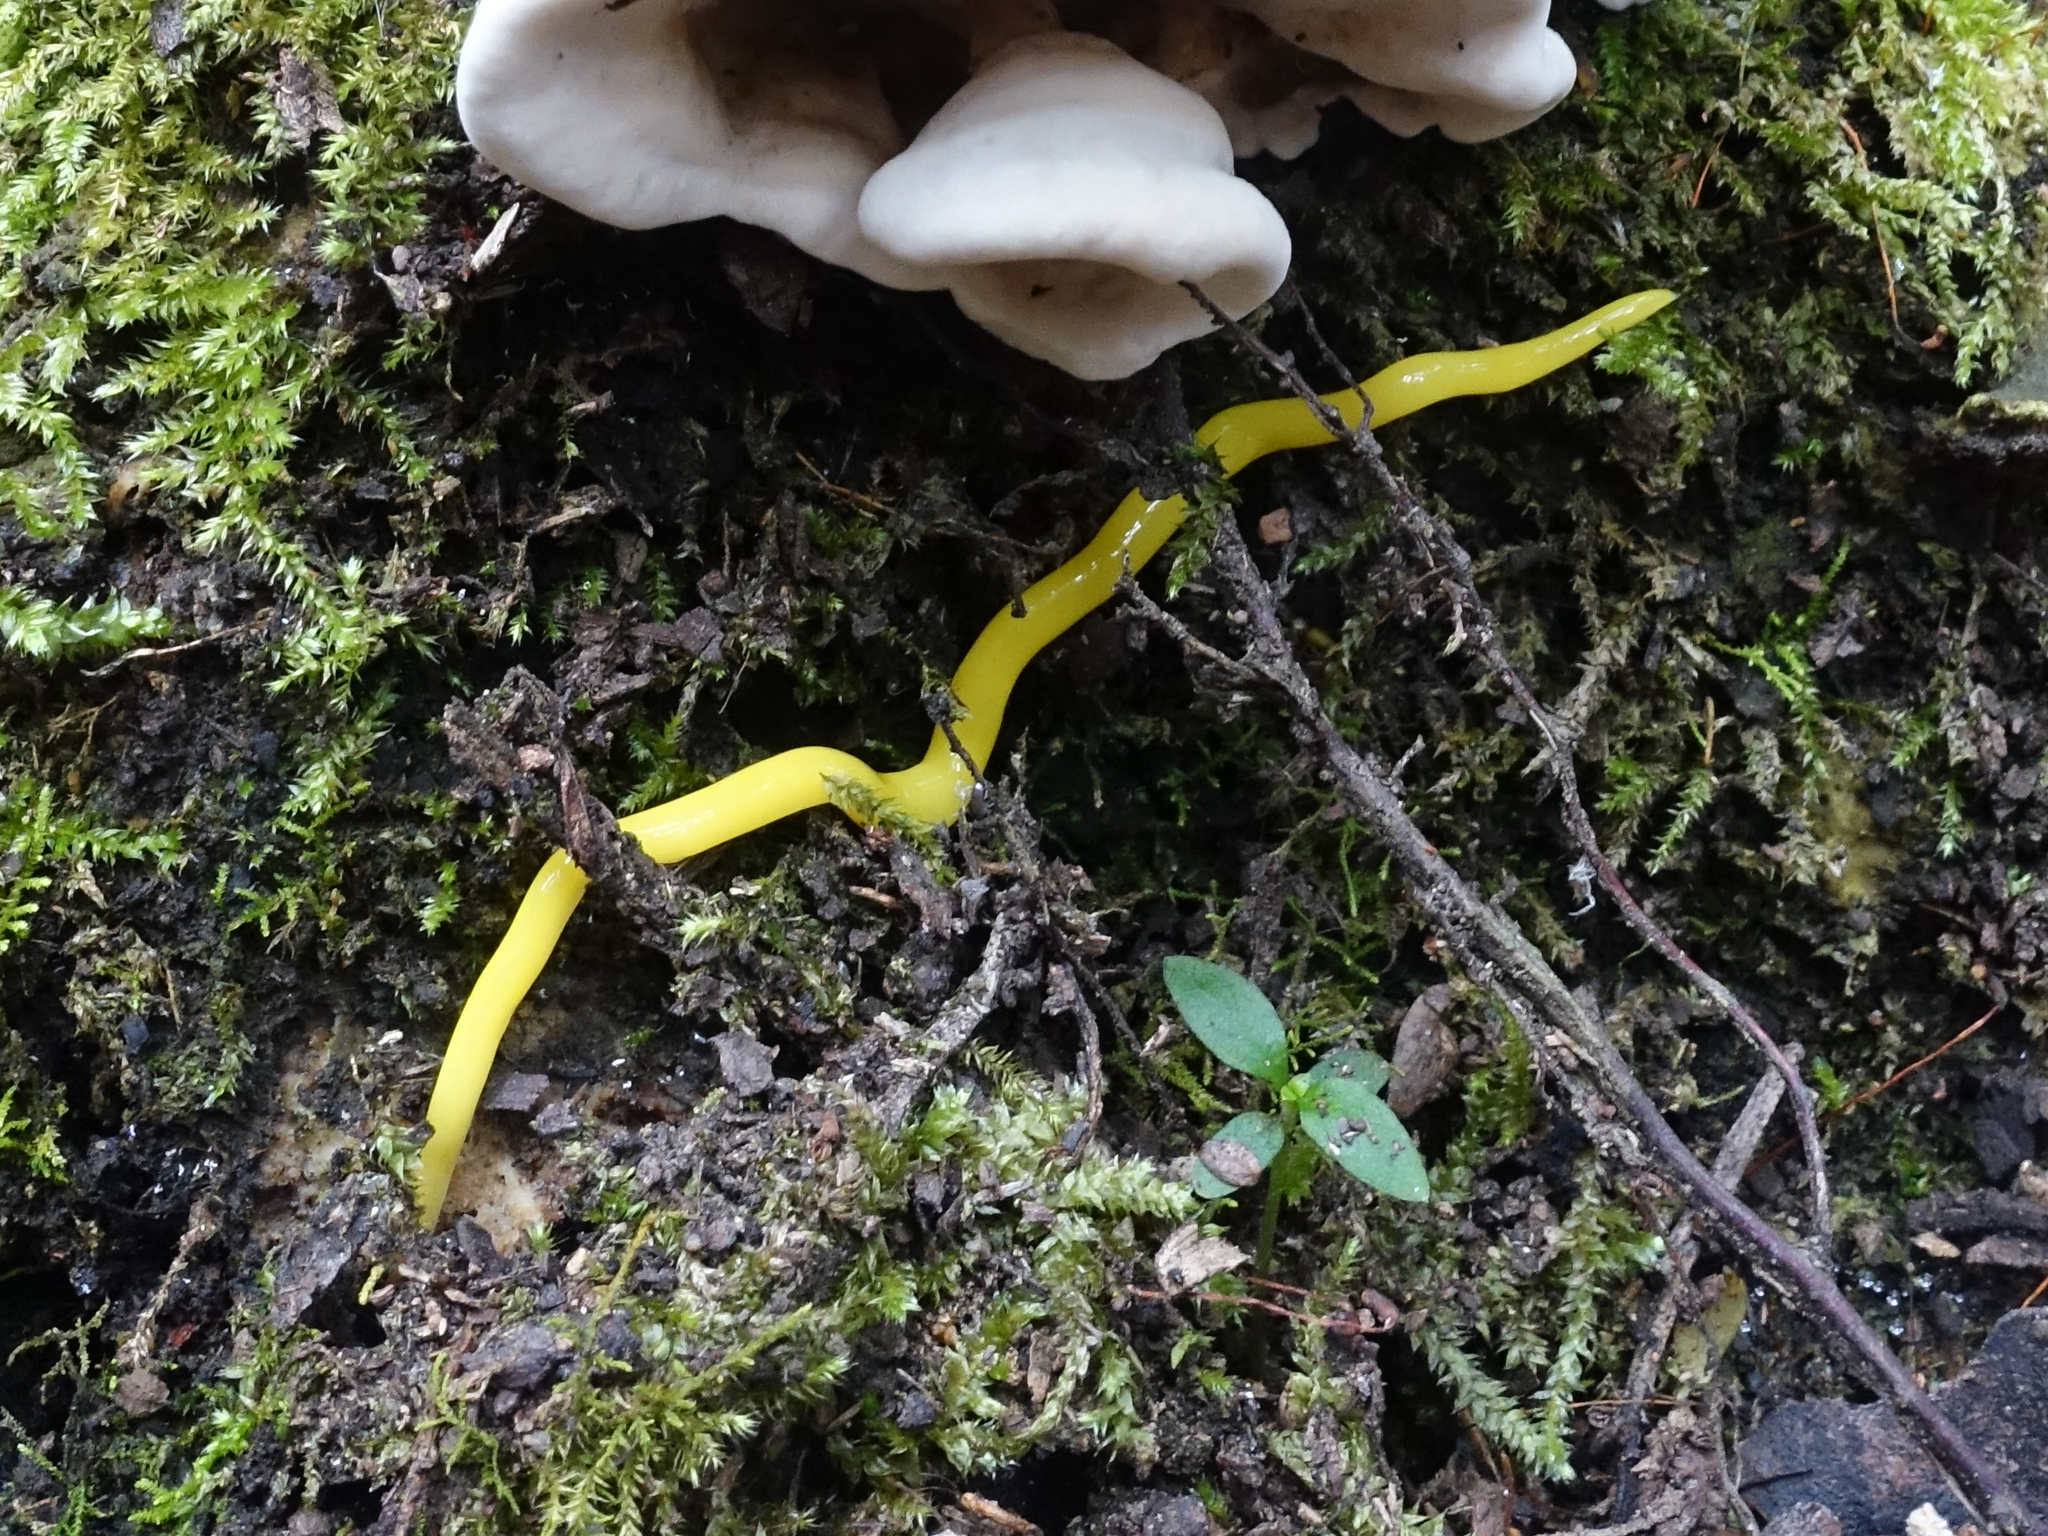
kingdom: Animalia
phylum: Platyhelminthes
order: Tricladida
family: Geoplanidae
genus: Fletchamia
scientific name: Fletchamia sugdeni
